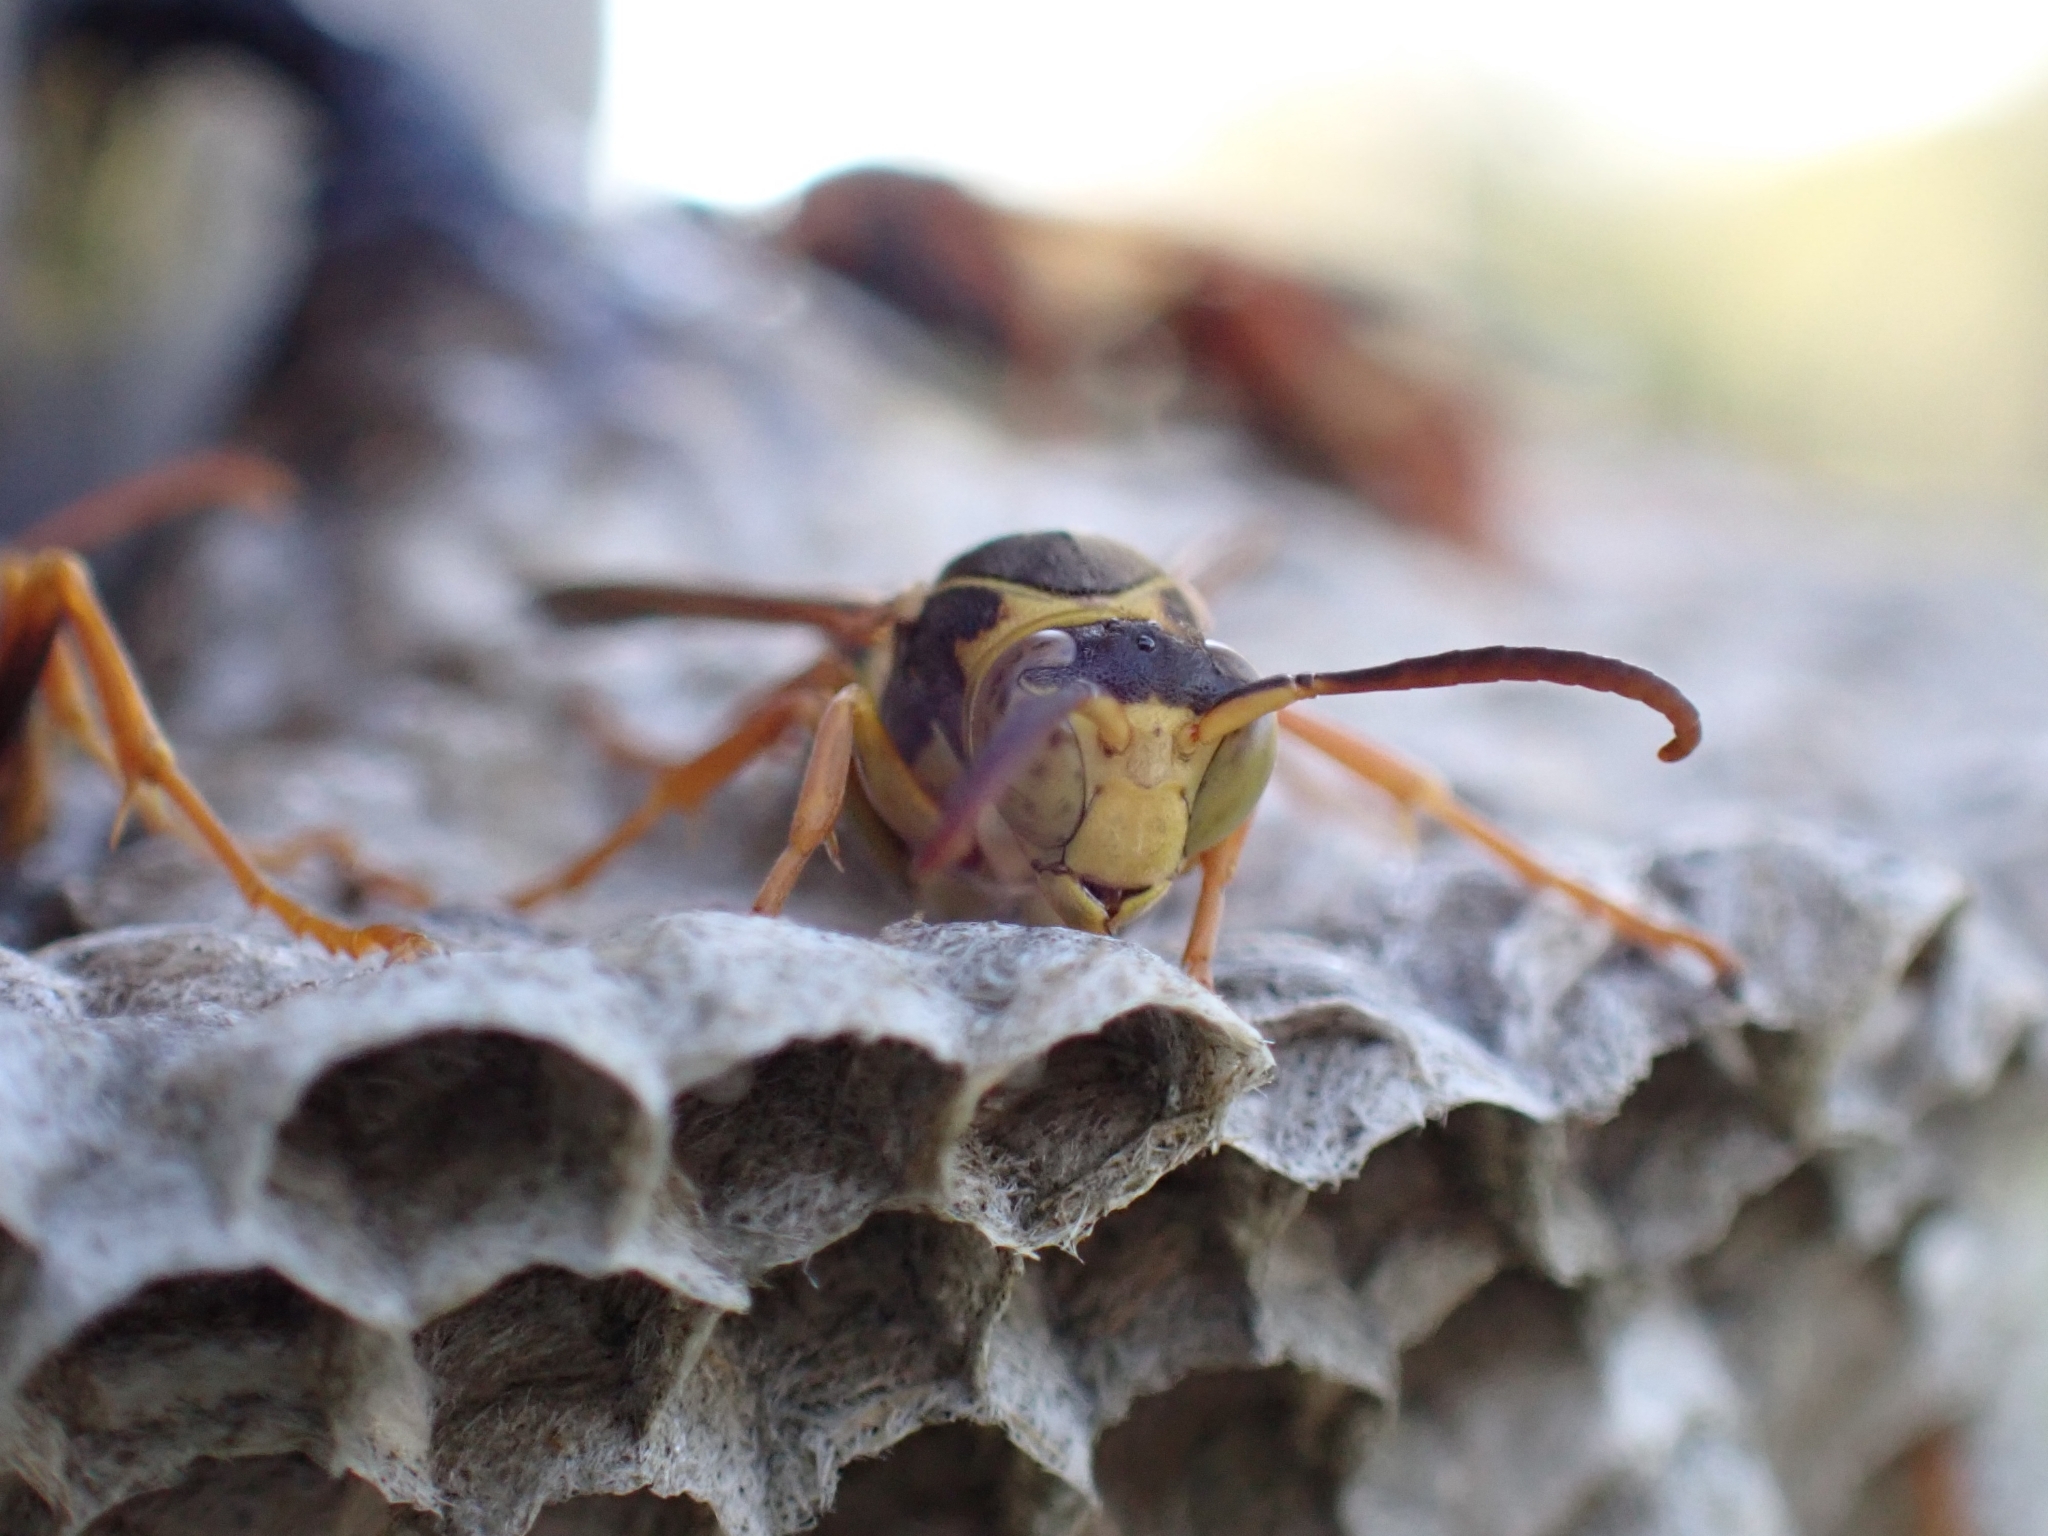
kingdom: Animalia
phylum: Arthropoda
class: Insecta
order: Hymenoptera
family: Eumenidae
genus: Polistes
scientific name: Polistes humilis
